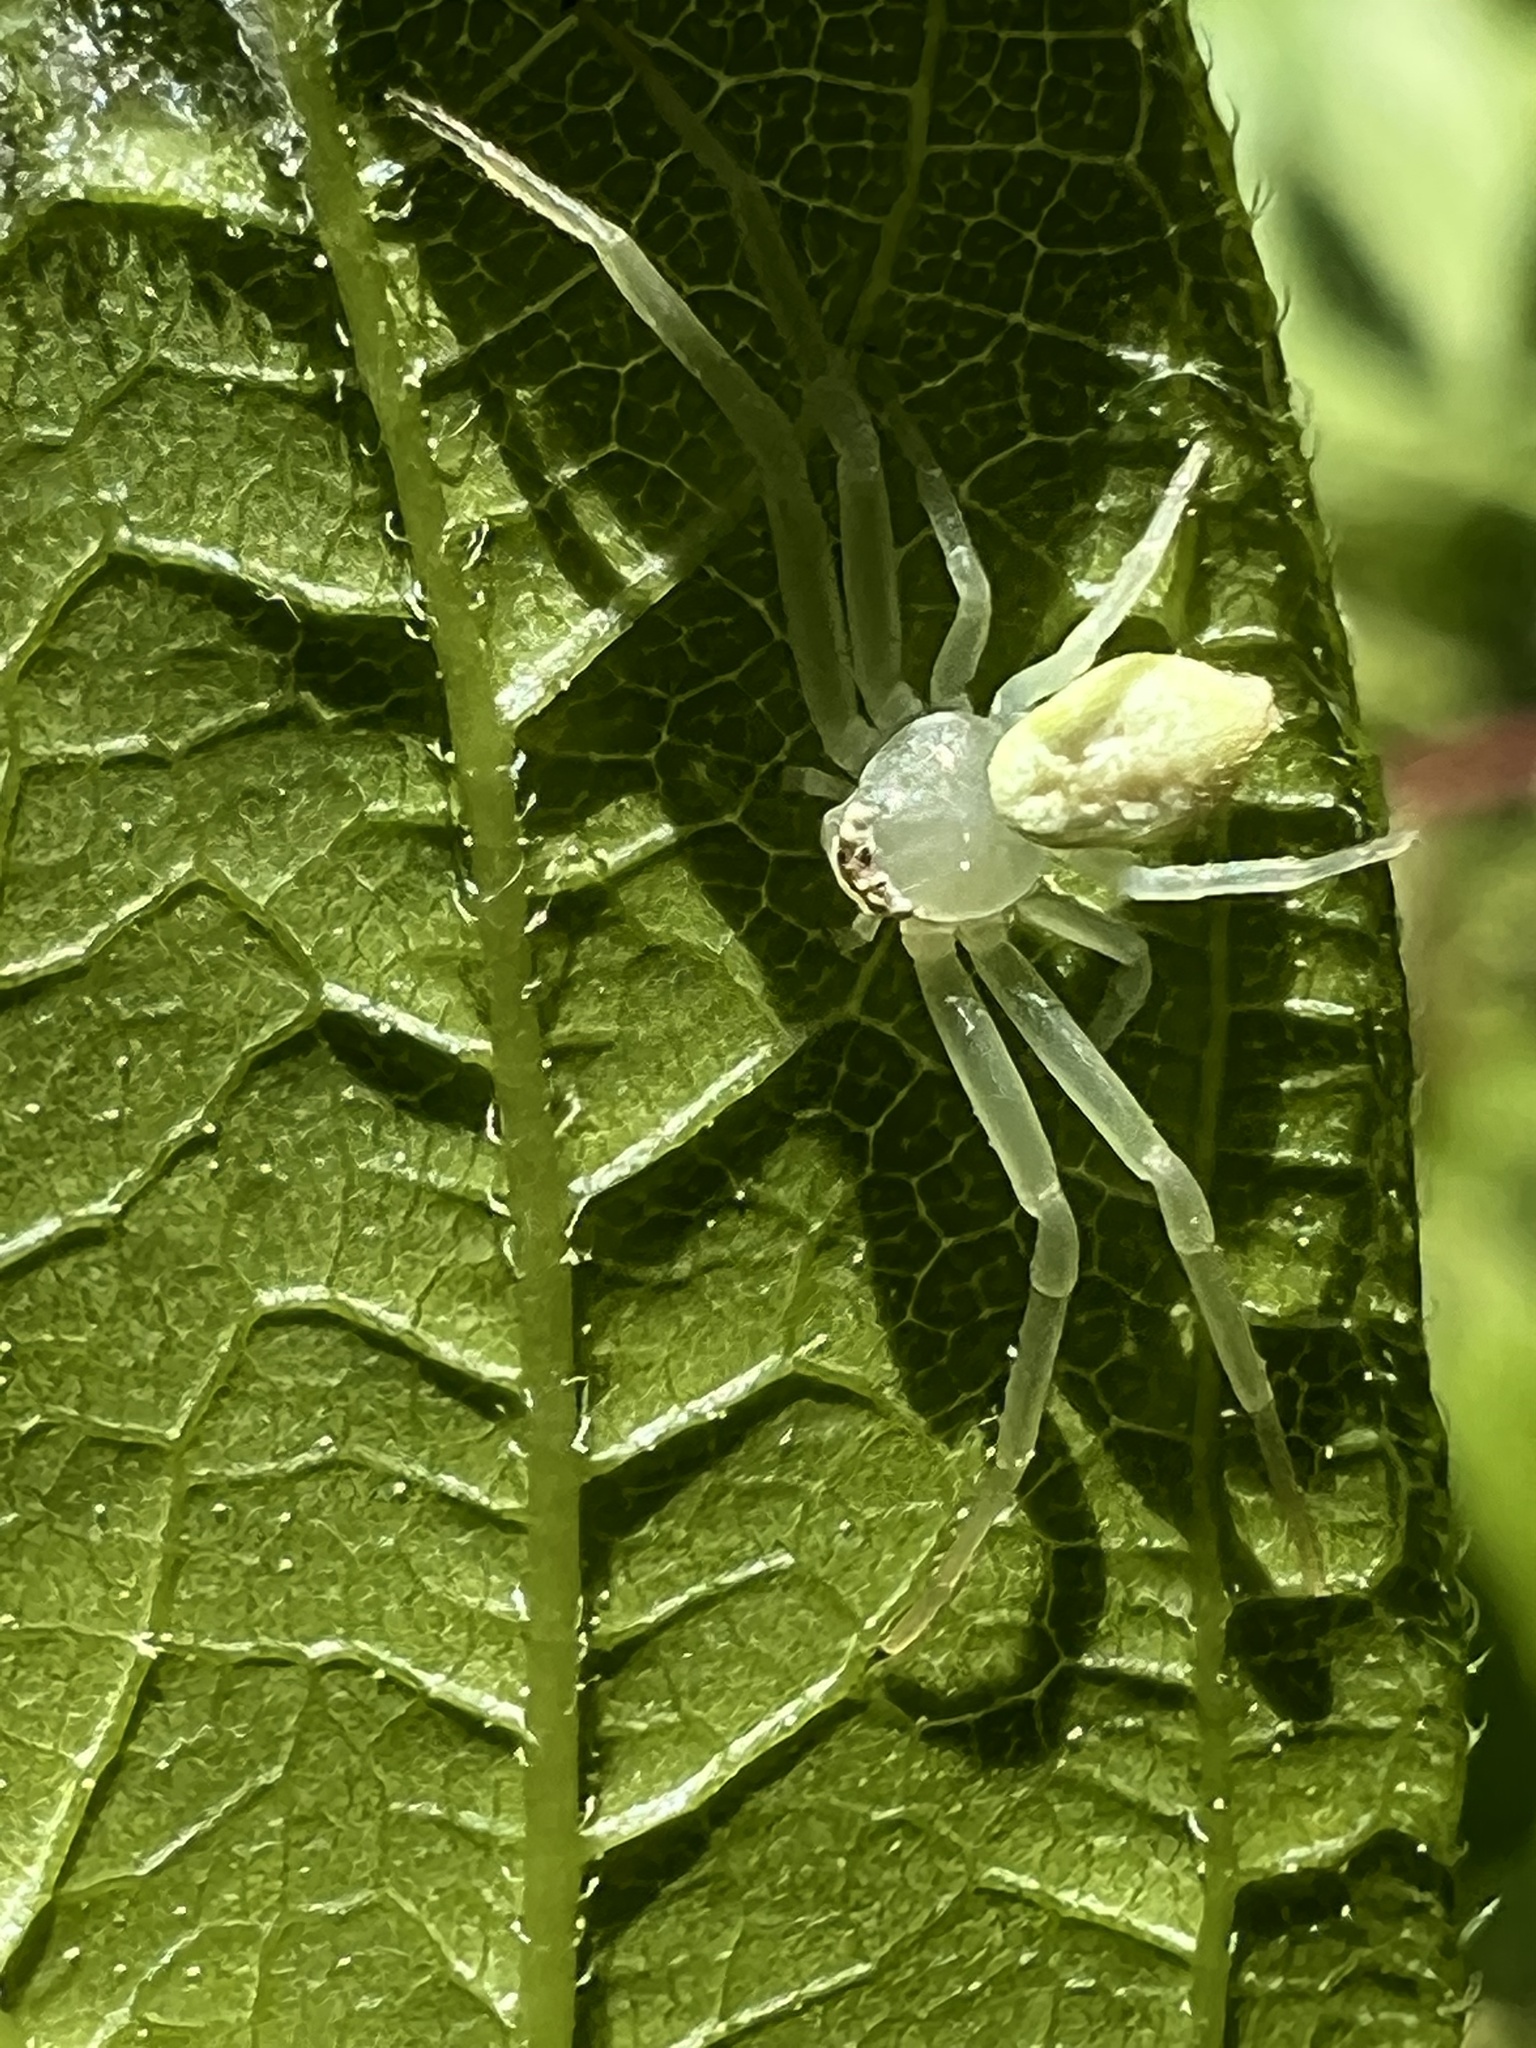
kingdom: Animalia
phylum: Arthropoda
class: Arachnida
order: Araneae
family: Thomisidae
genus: Misumessus
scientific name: Misumessus oblongus
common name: American green crab spider
